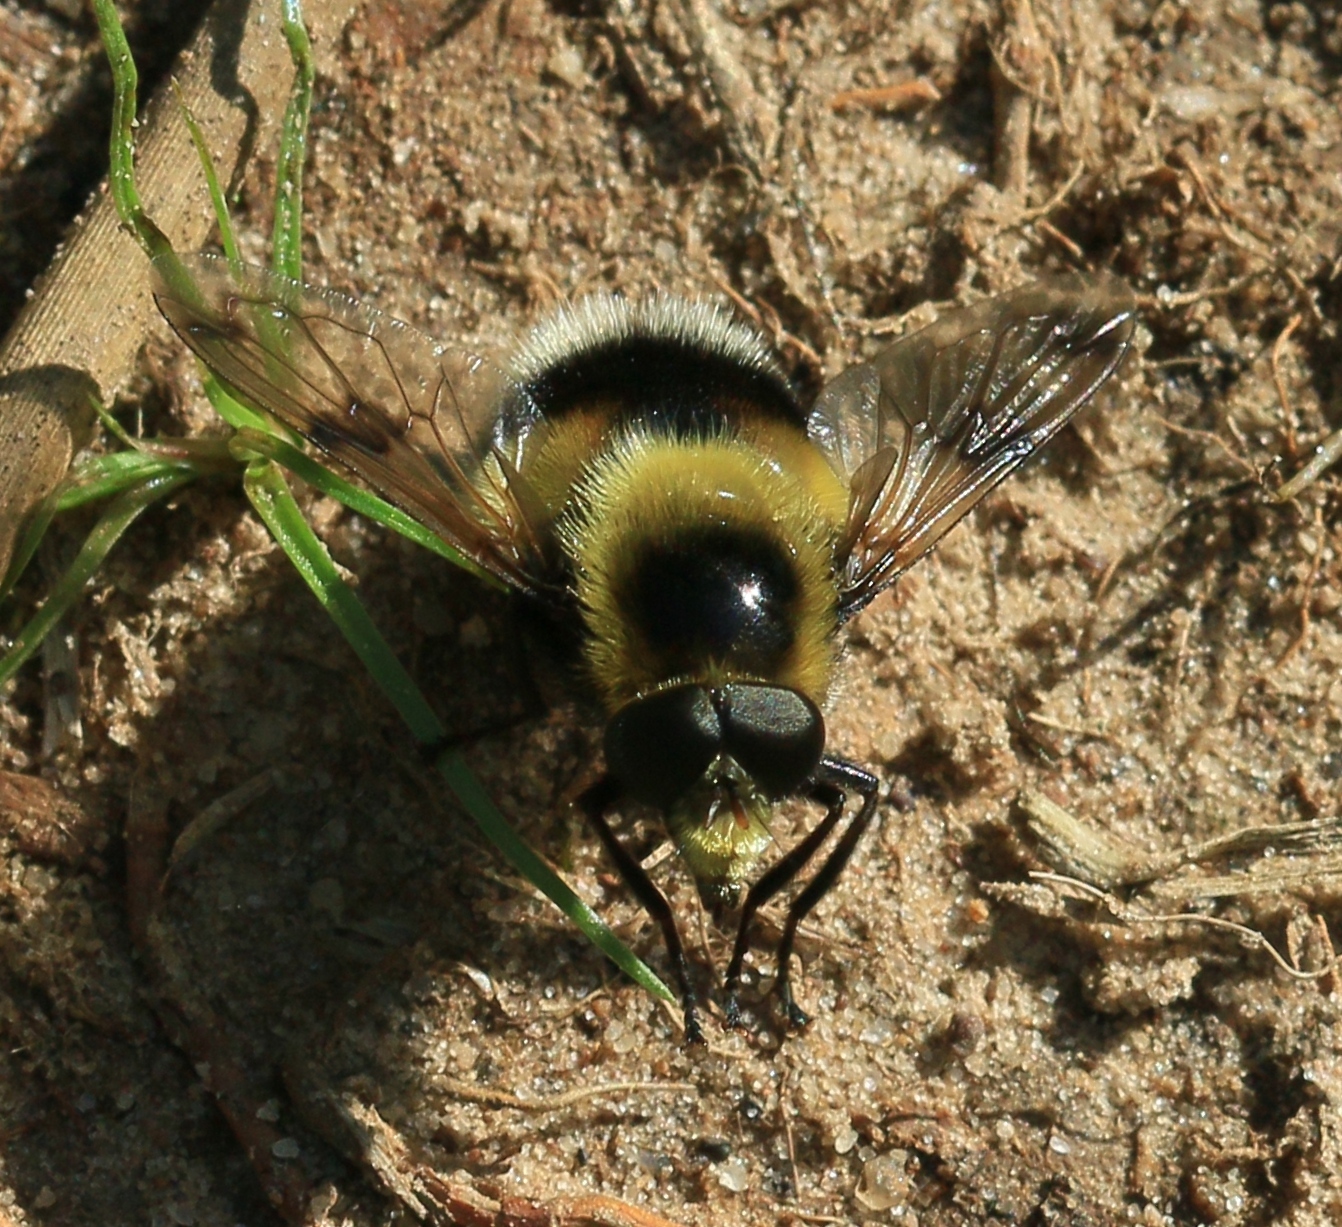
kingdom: Animalia
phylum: Arthropoda
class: Insecta
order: Diptera
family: Syrphidae
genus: Volucella
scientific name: Volucella bombylans
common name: Bumble bee hover fly
